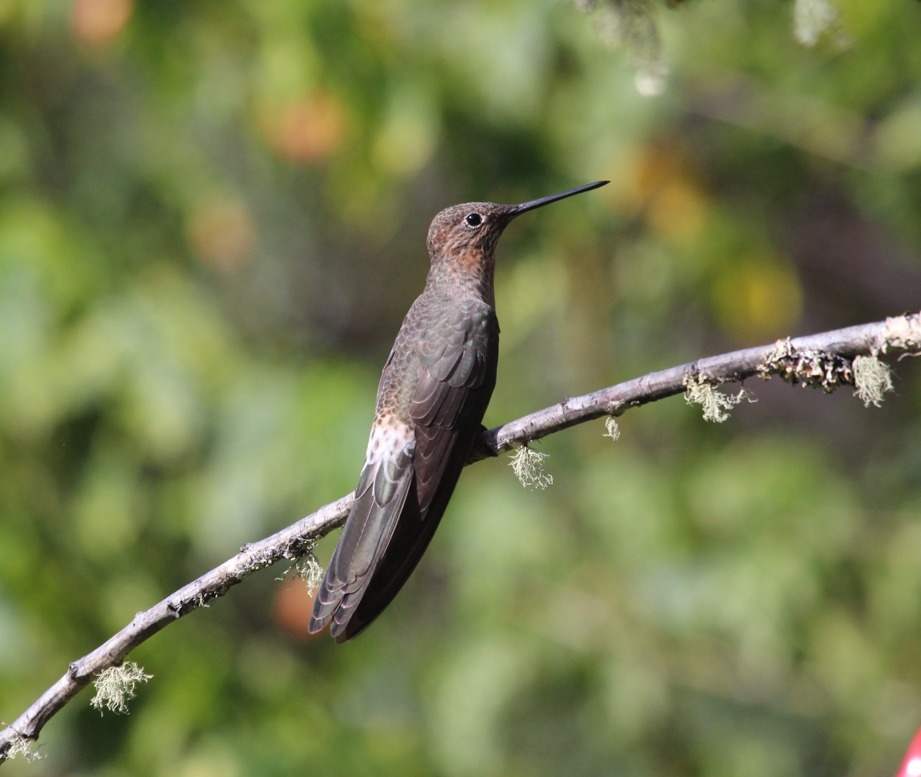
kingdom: Animalia
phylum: Chordata
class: Aves
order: Apodiformes
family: Trochilidae
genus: Patagona
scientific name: Patagona gigas
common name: Giant hummingbird
